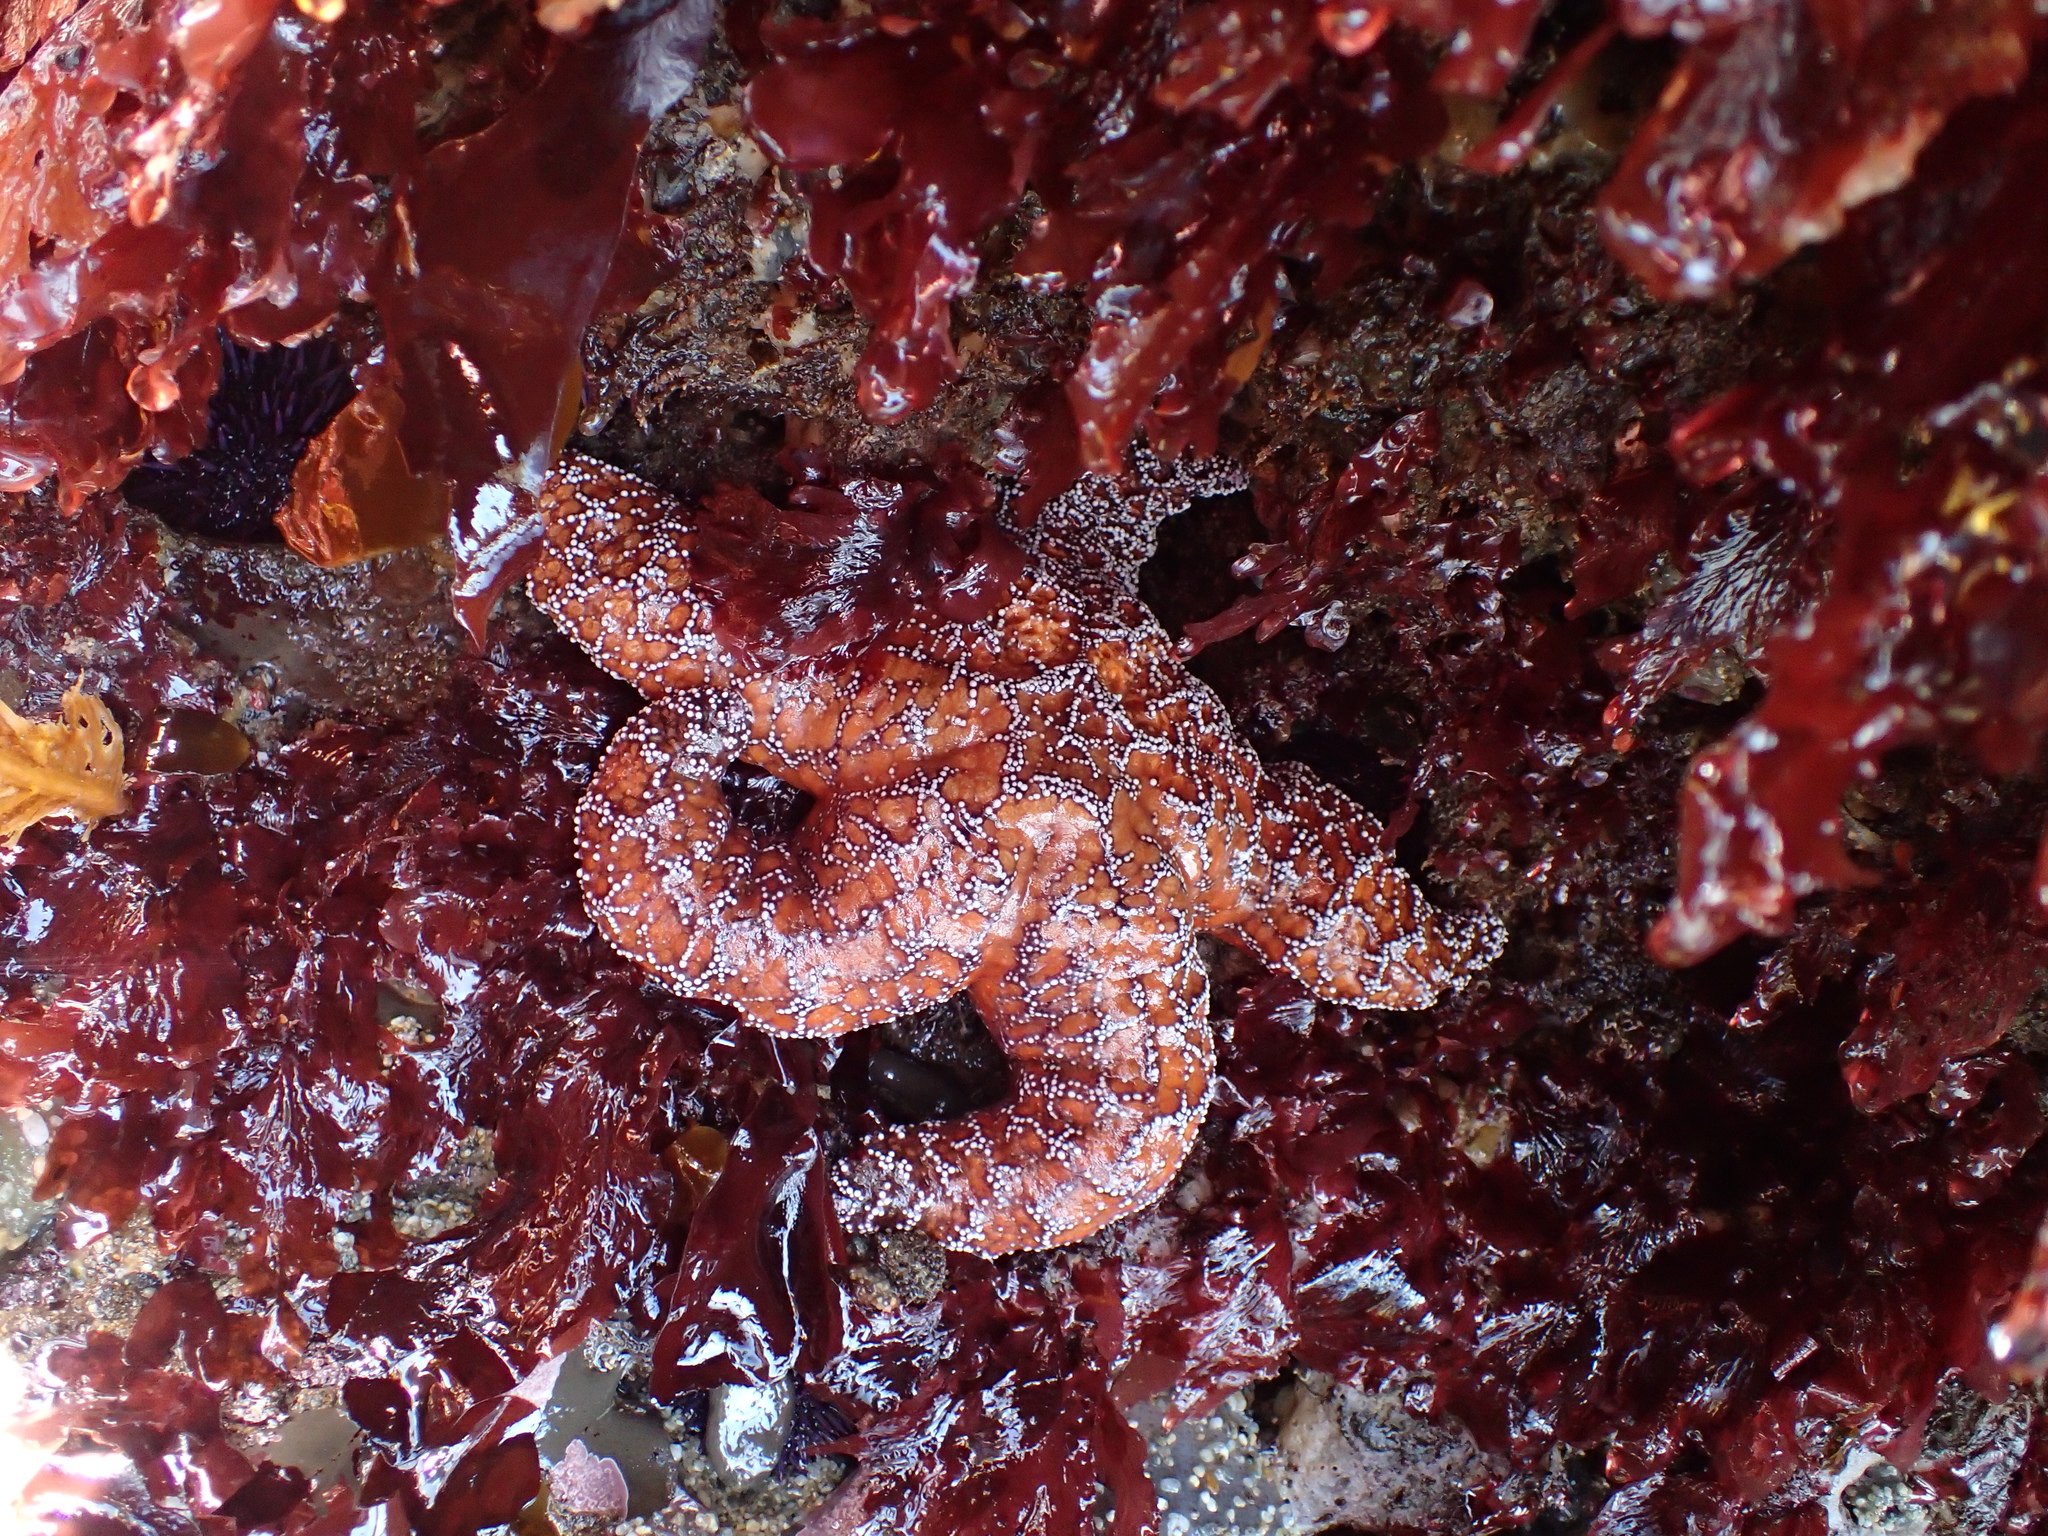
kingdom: Animalia
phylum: Echinodermata
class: Asteroidea
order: Forcipulatida
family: Asteriidae
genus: Pisaster
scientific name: Pisaster ochraceus
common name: Ochre stars
